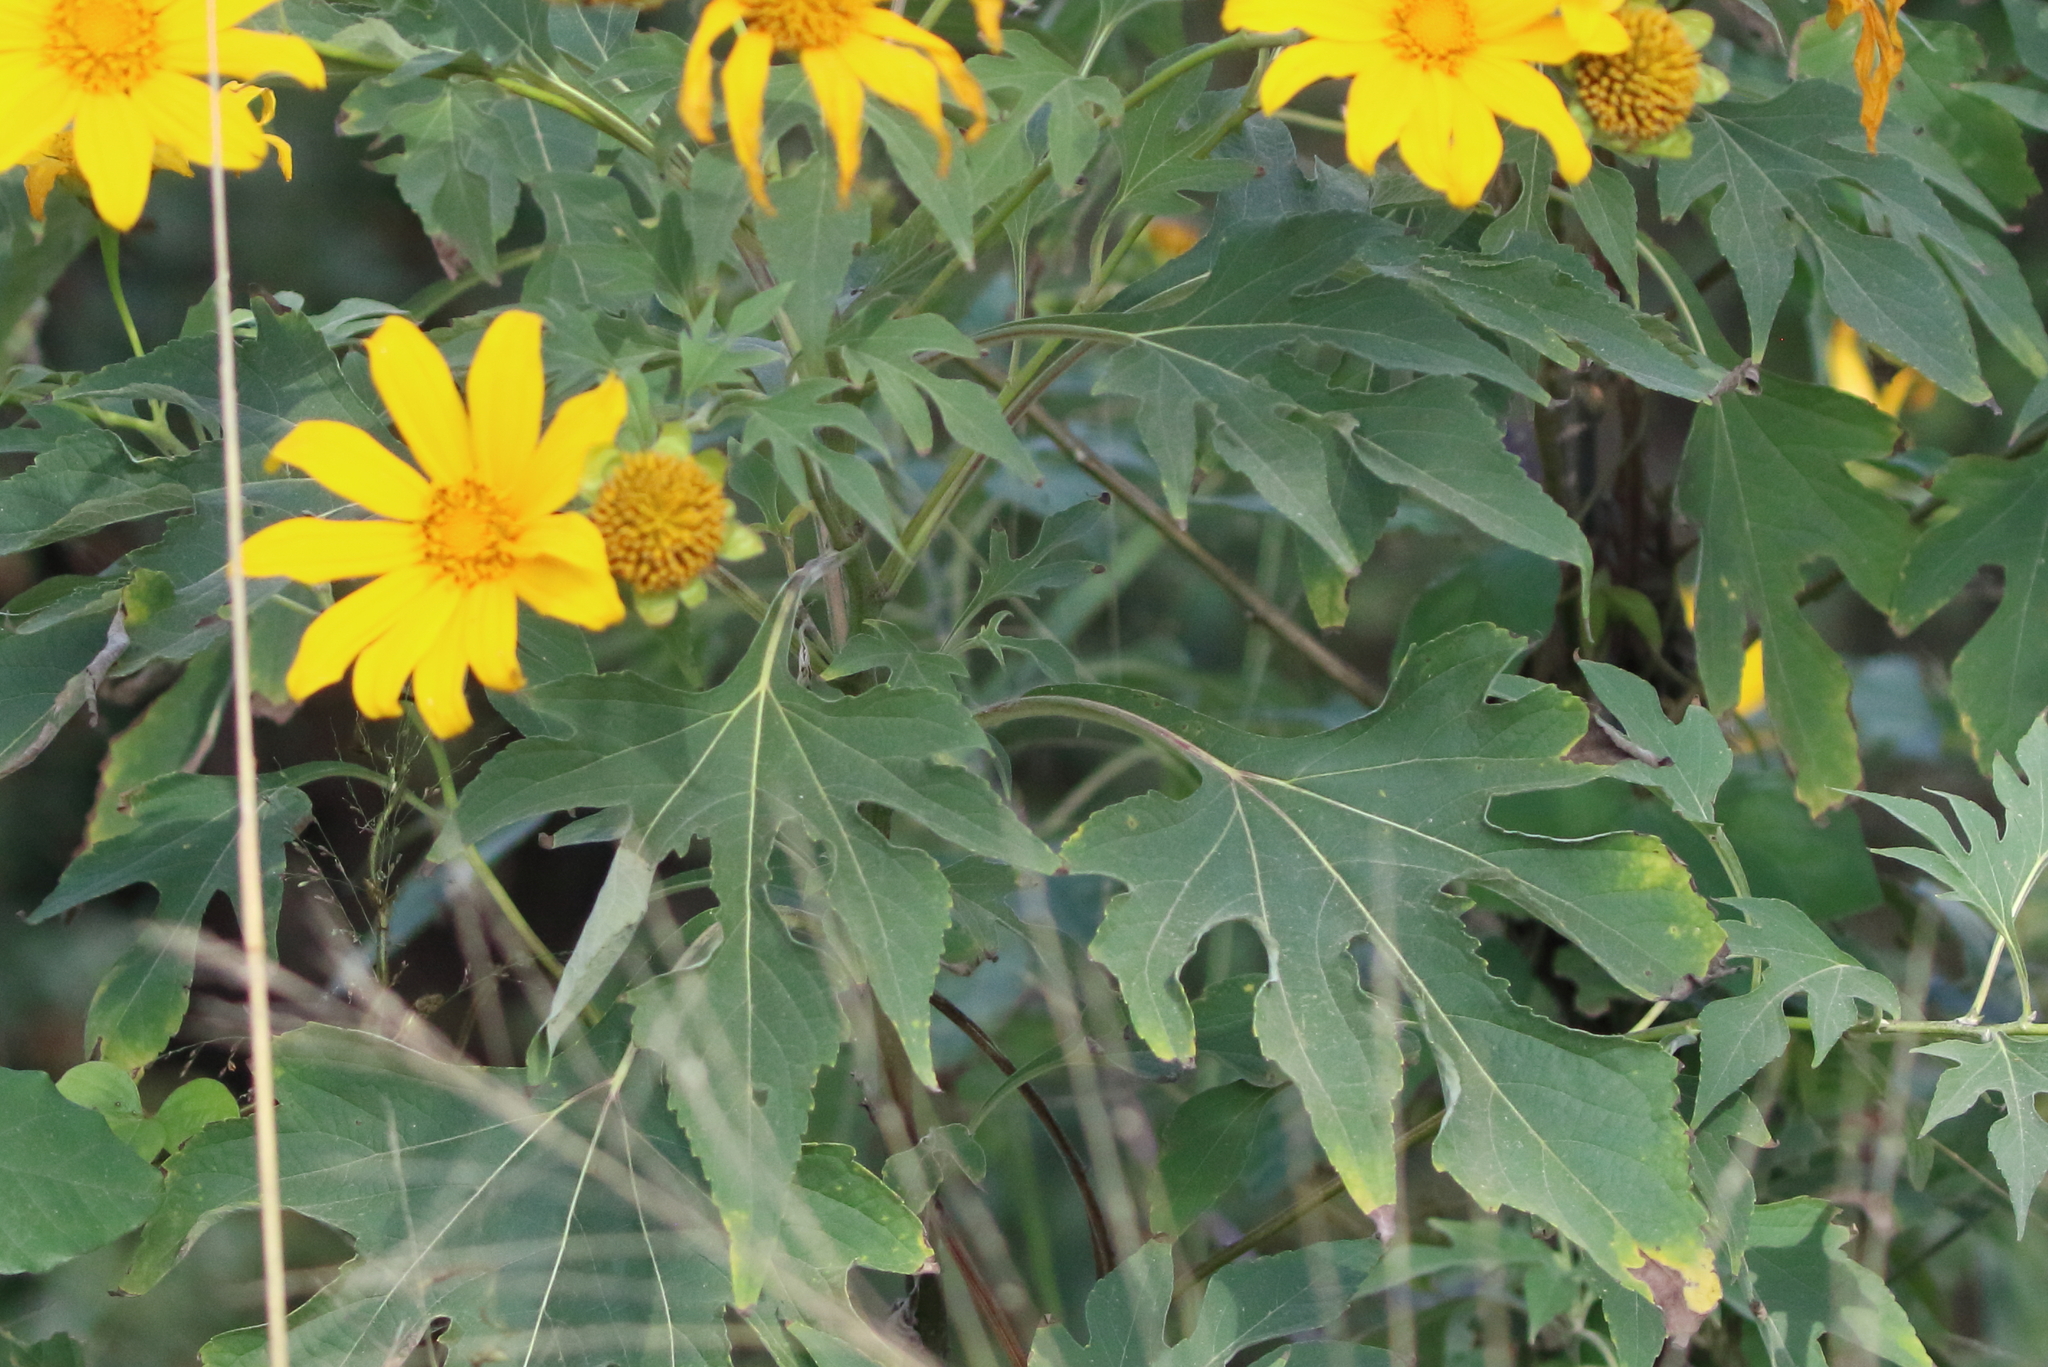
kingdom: Plantae
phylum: Tracheophyta
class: Magnoliopsida
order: Asterales
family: Asteraceae
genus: Tithonia
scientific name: Tithonia diversifolia
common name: Tree marigold
